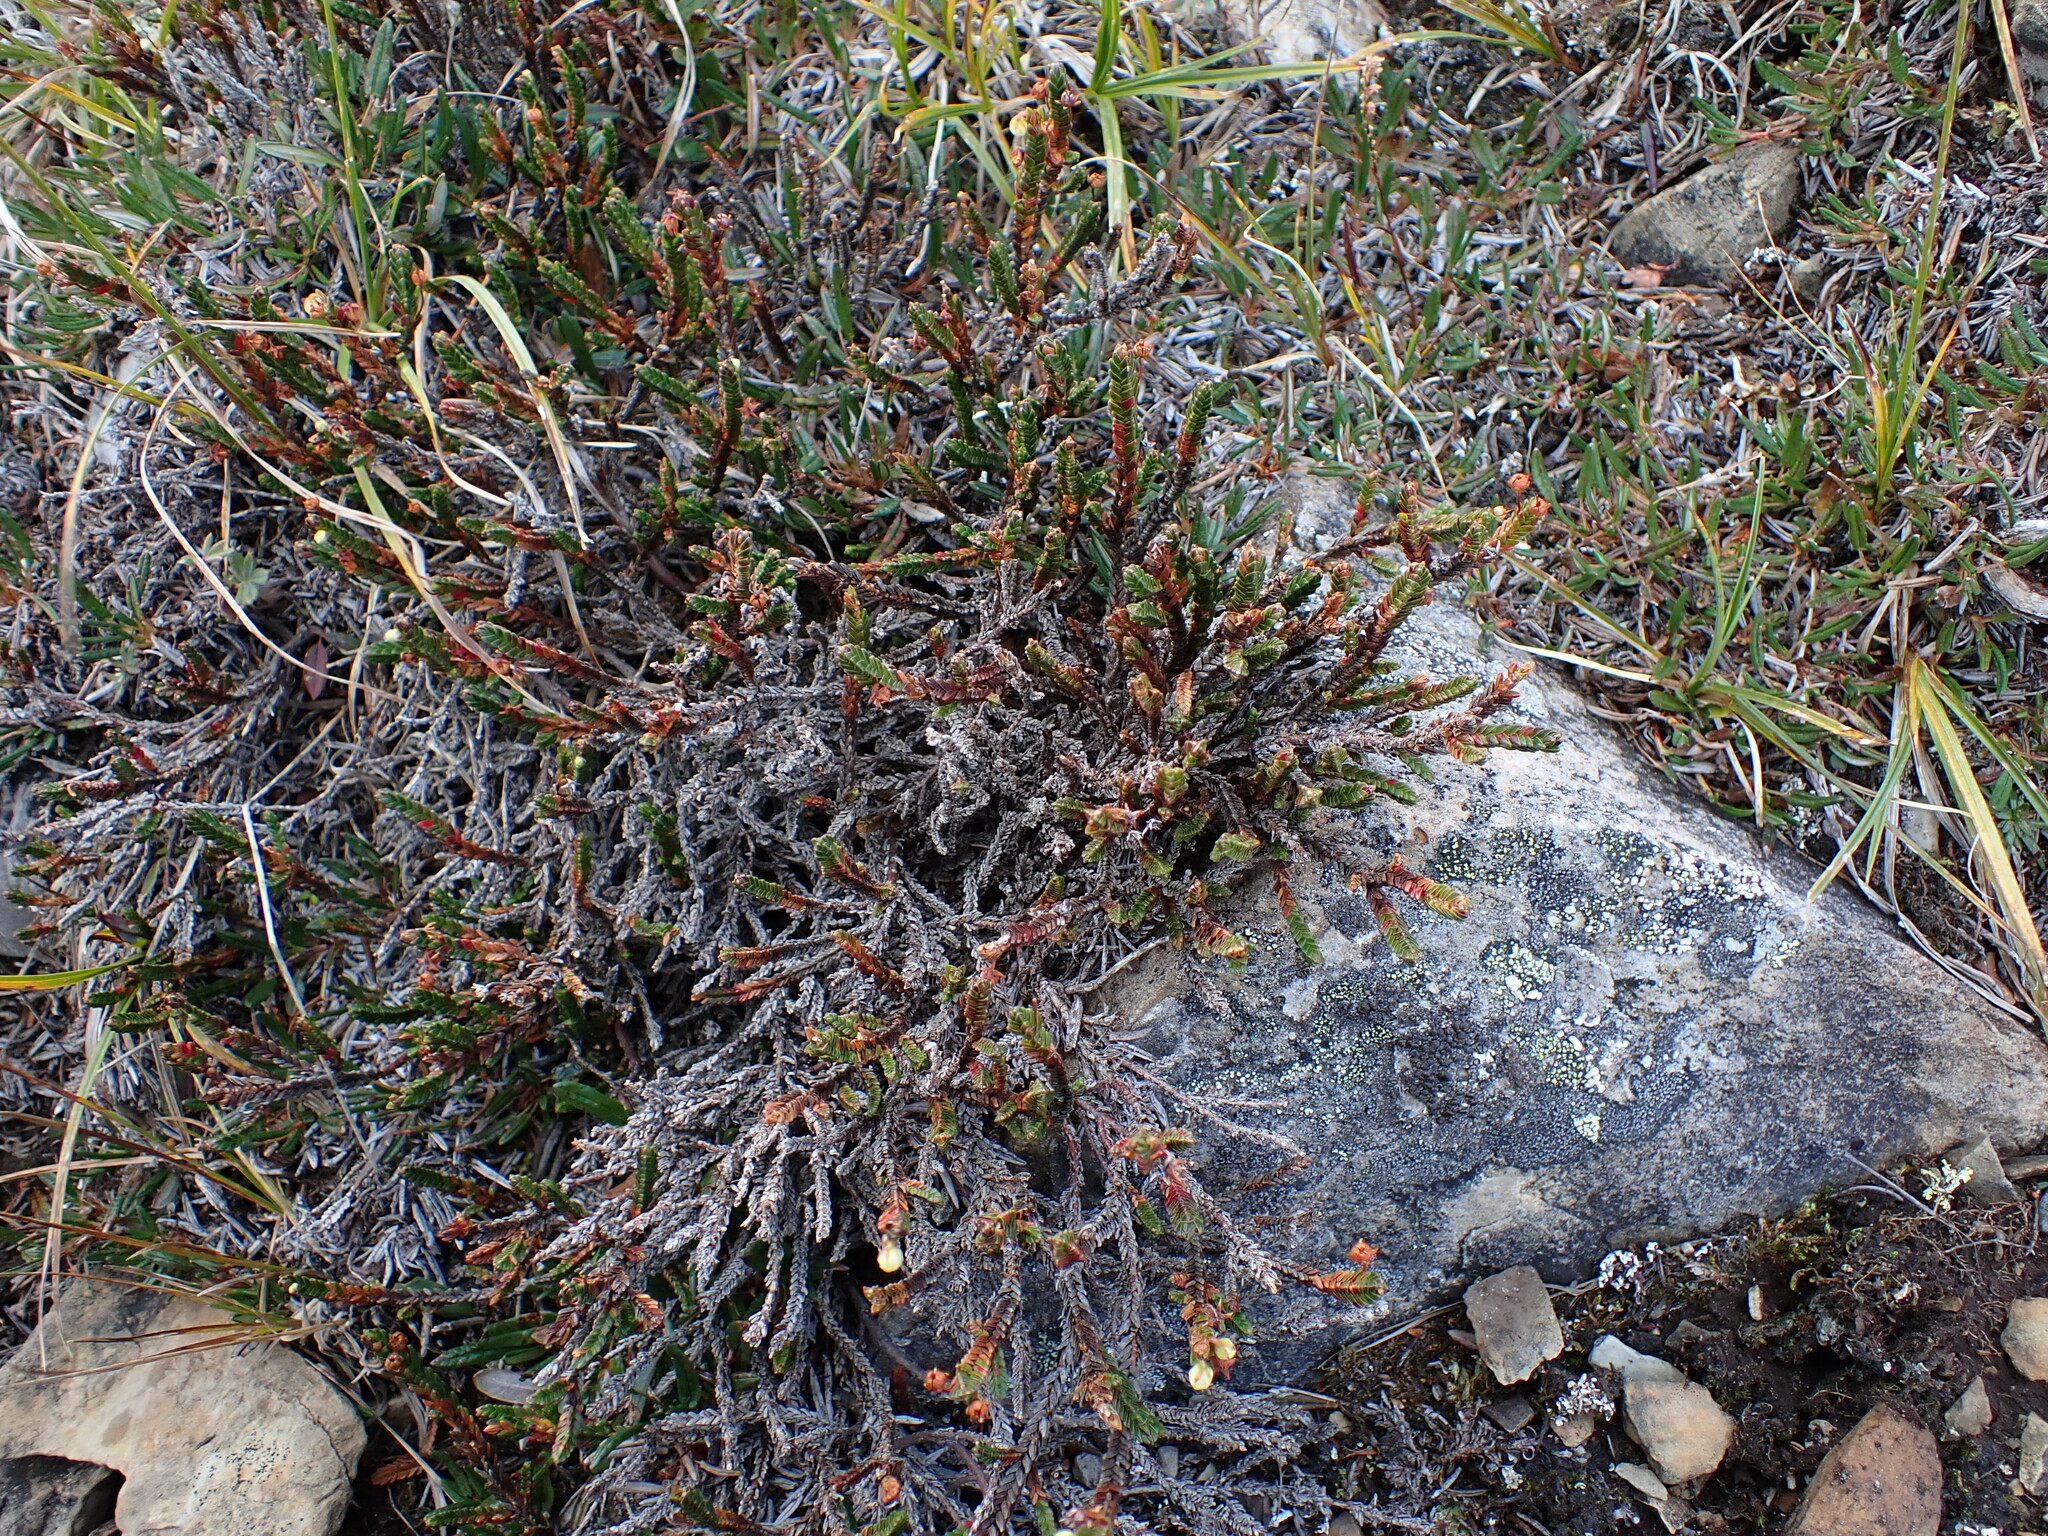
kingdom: Plantae
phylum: Tracheophyta
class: Magnoliopsida
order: Ericales
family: Ericaceae
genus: Cassiope
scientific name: Cassiope tetragona
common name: Arctic bell heather
